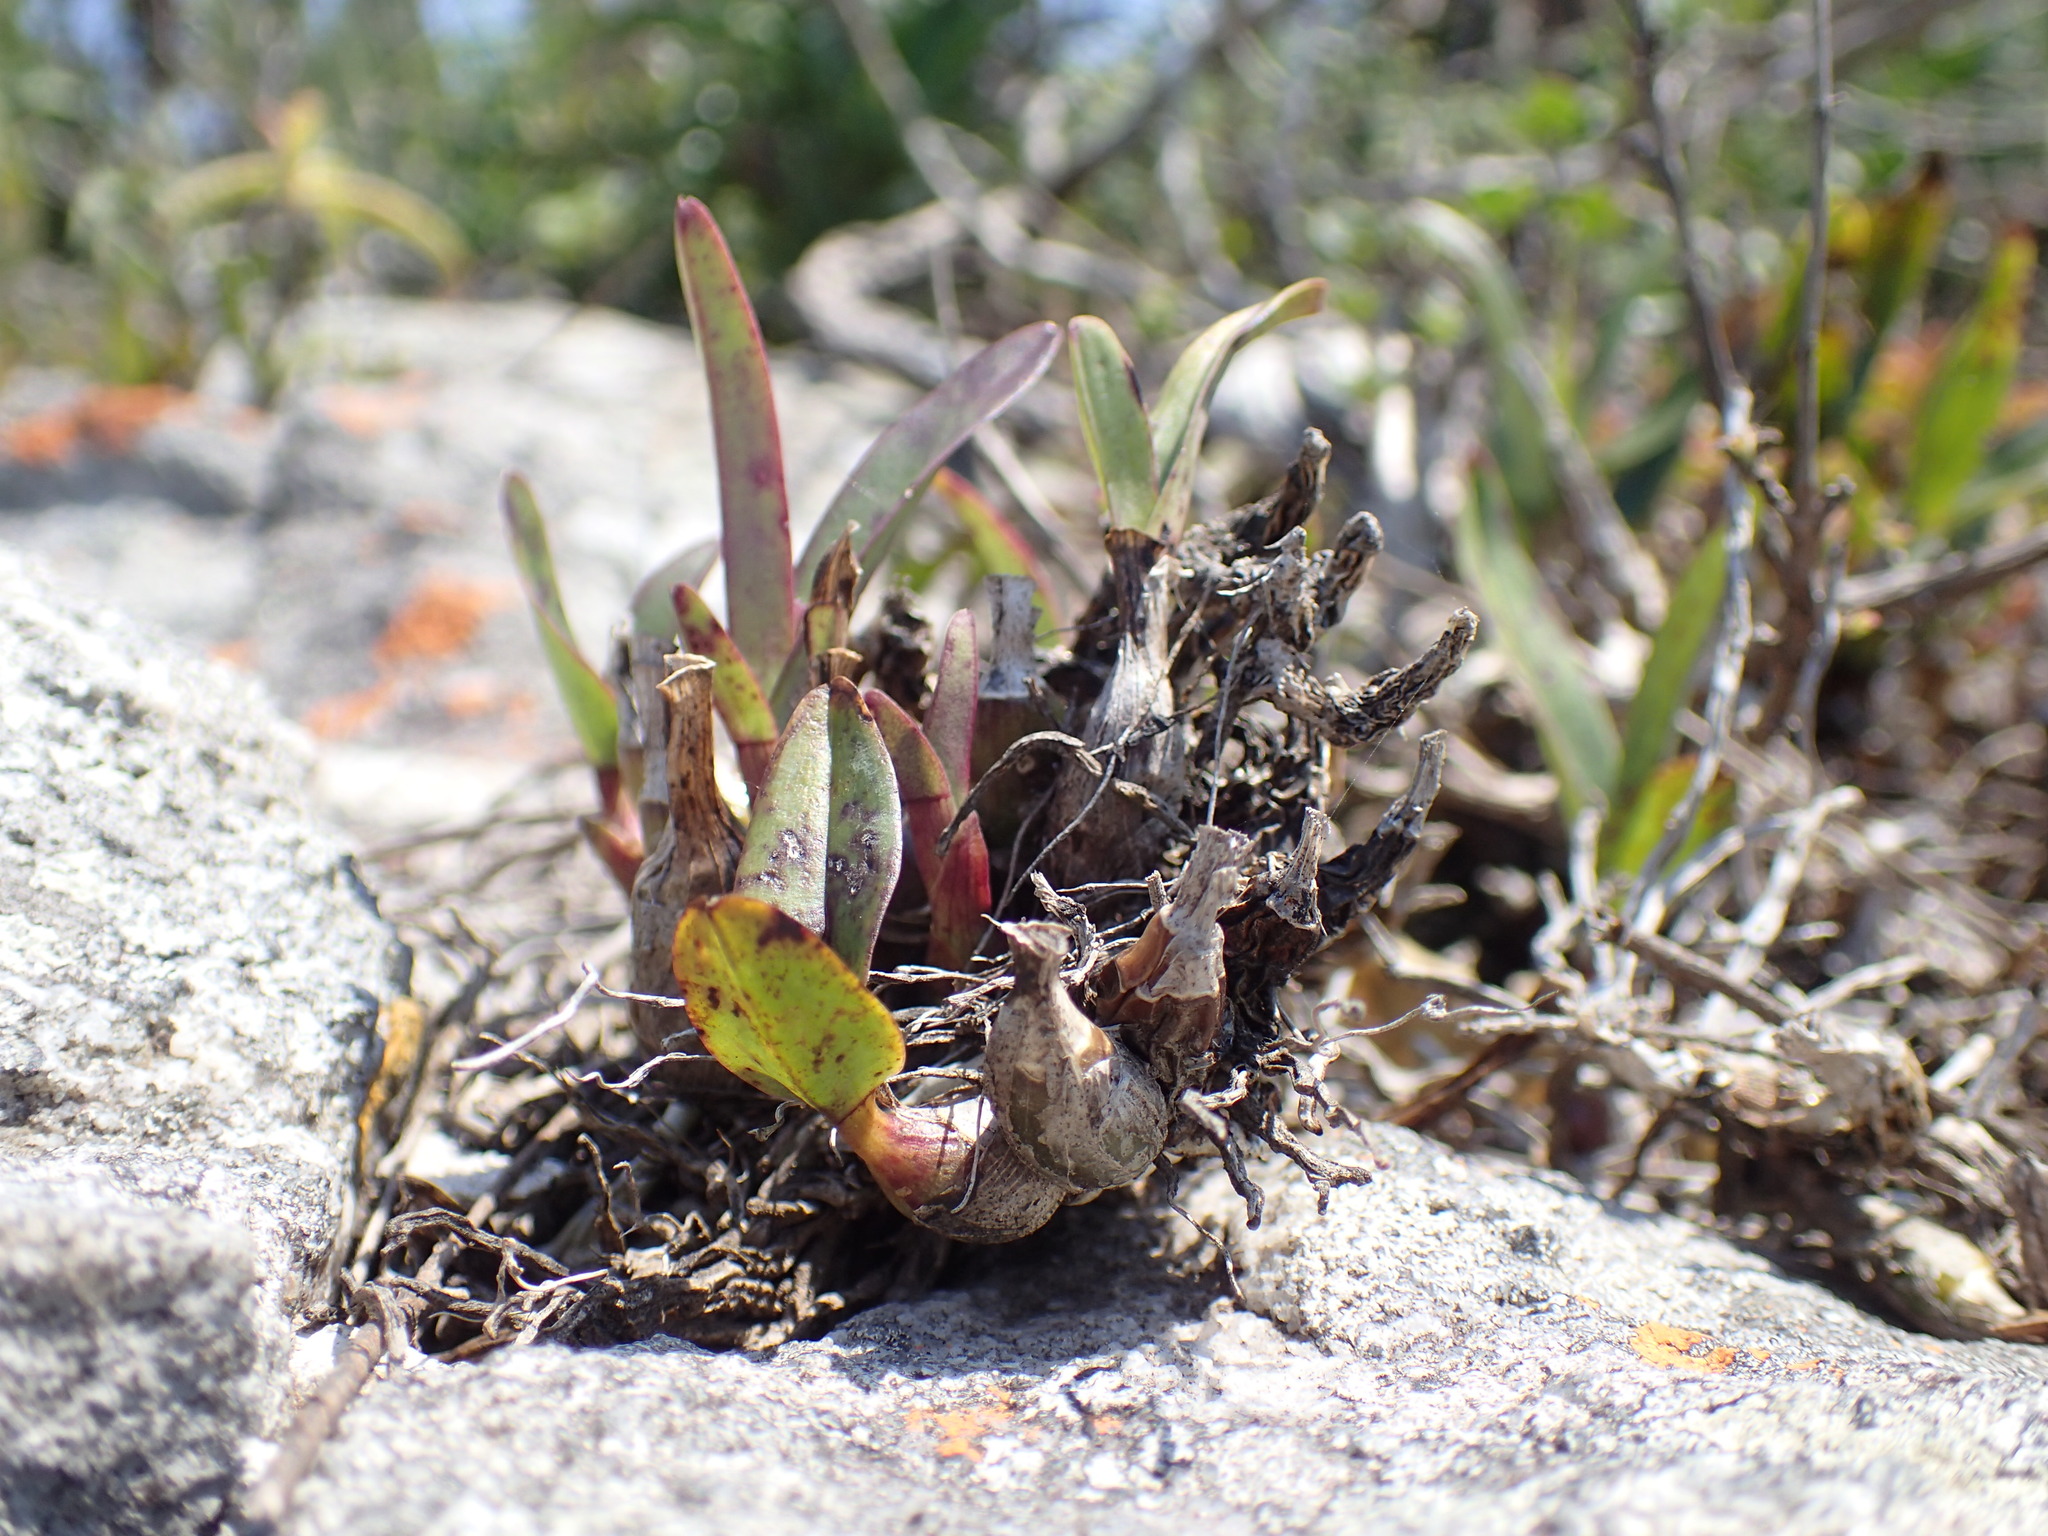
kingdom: Plantae
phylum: Tracheophyta
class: Liliopsida
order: Asparagales
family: Orchidaceae
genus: Polystachya
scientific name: Polystachya pubescens
